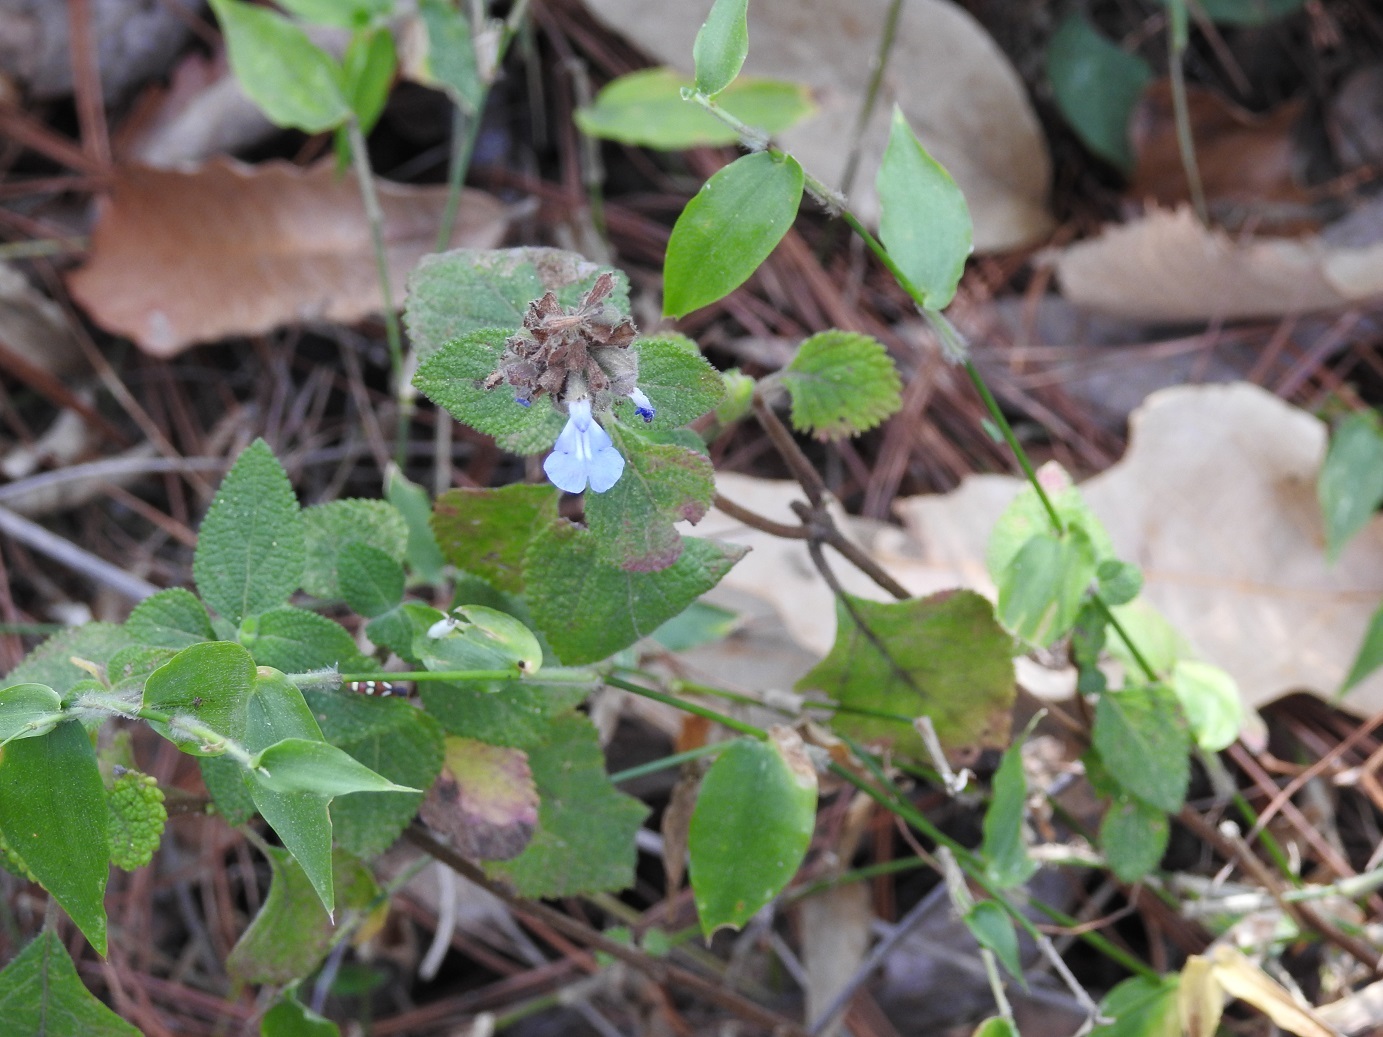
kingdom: Plantae
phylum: Tracheophyta
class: Magnoliopsida
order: Lamiales
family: Lamiaceae
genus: Salvia
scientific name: Salvia mocinoi
